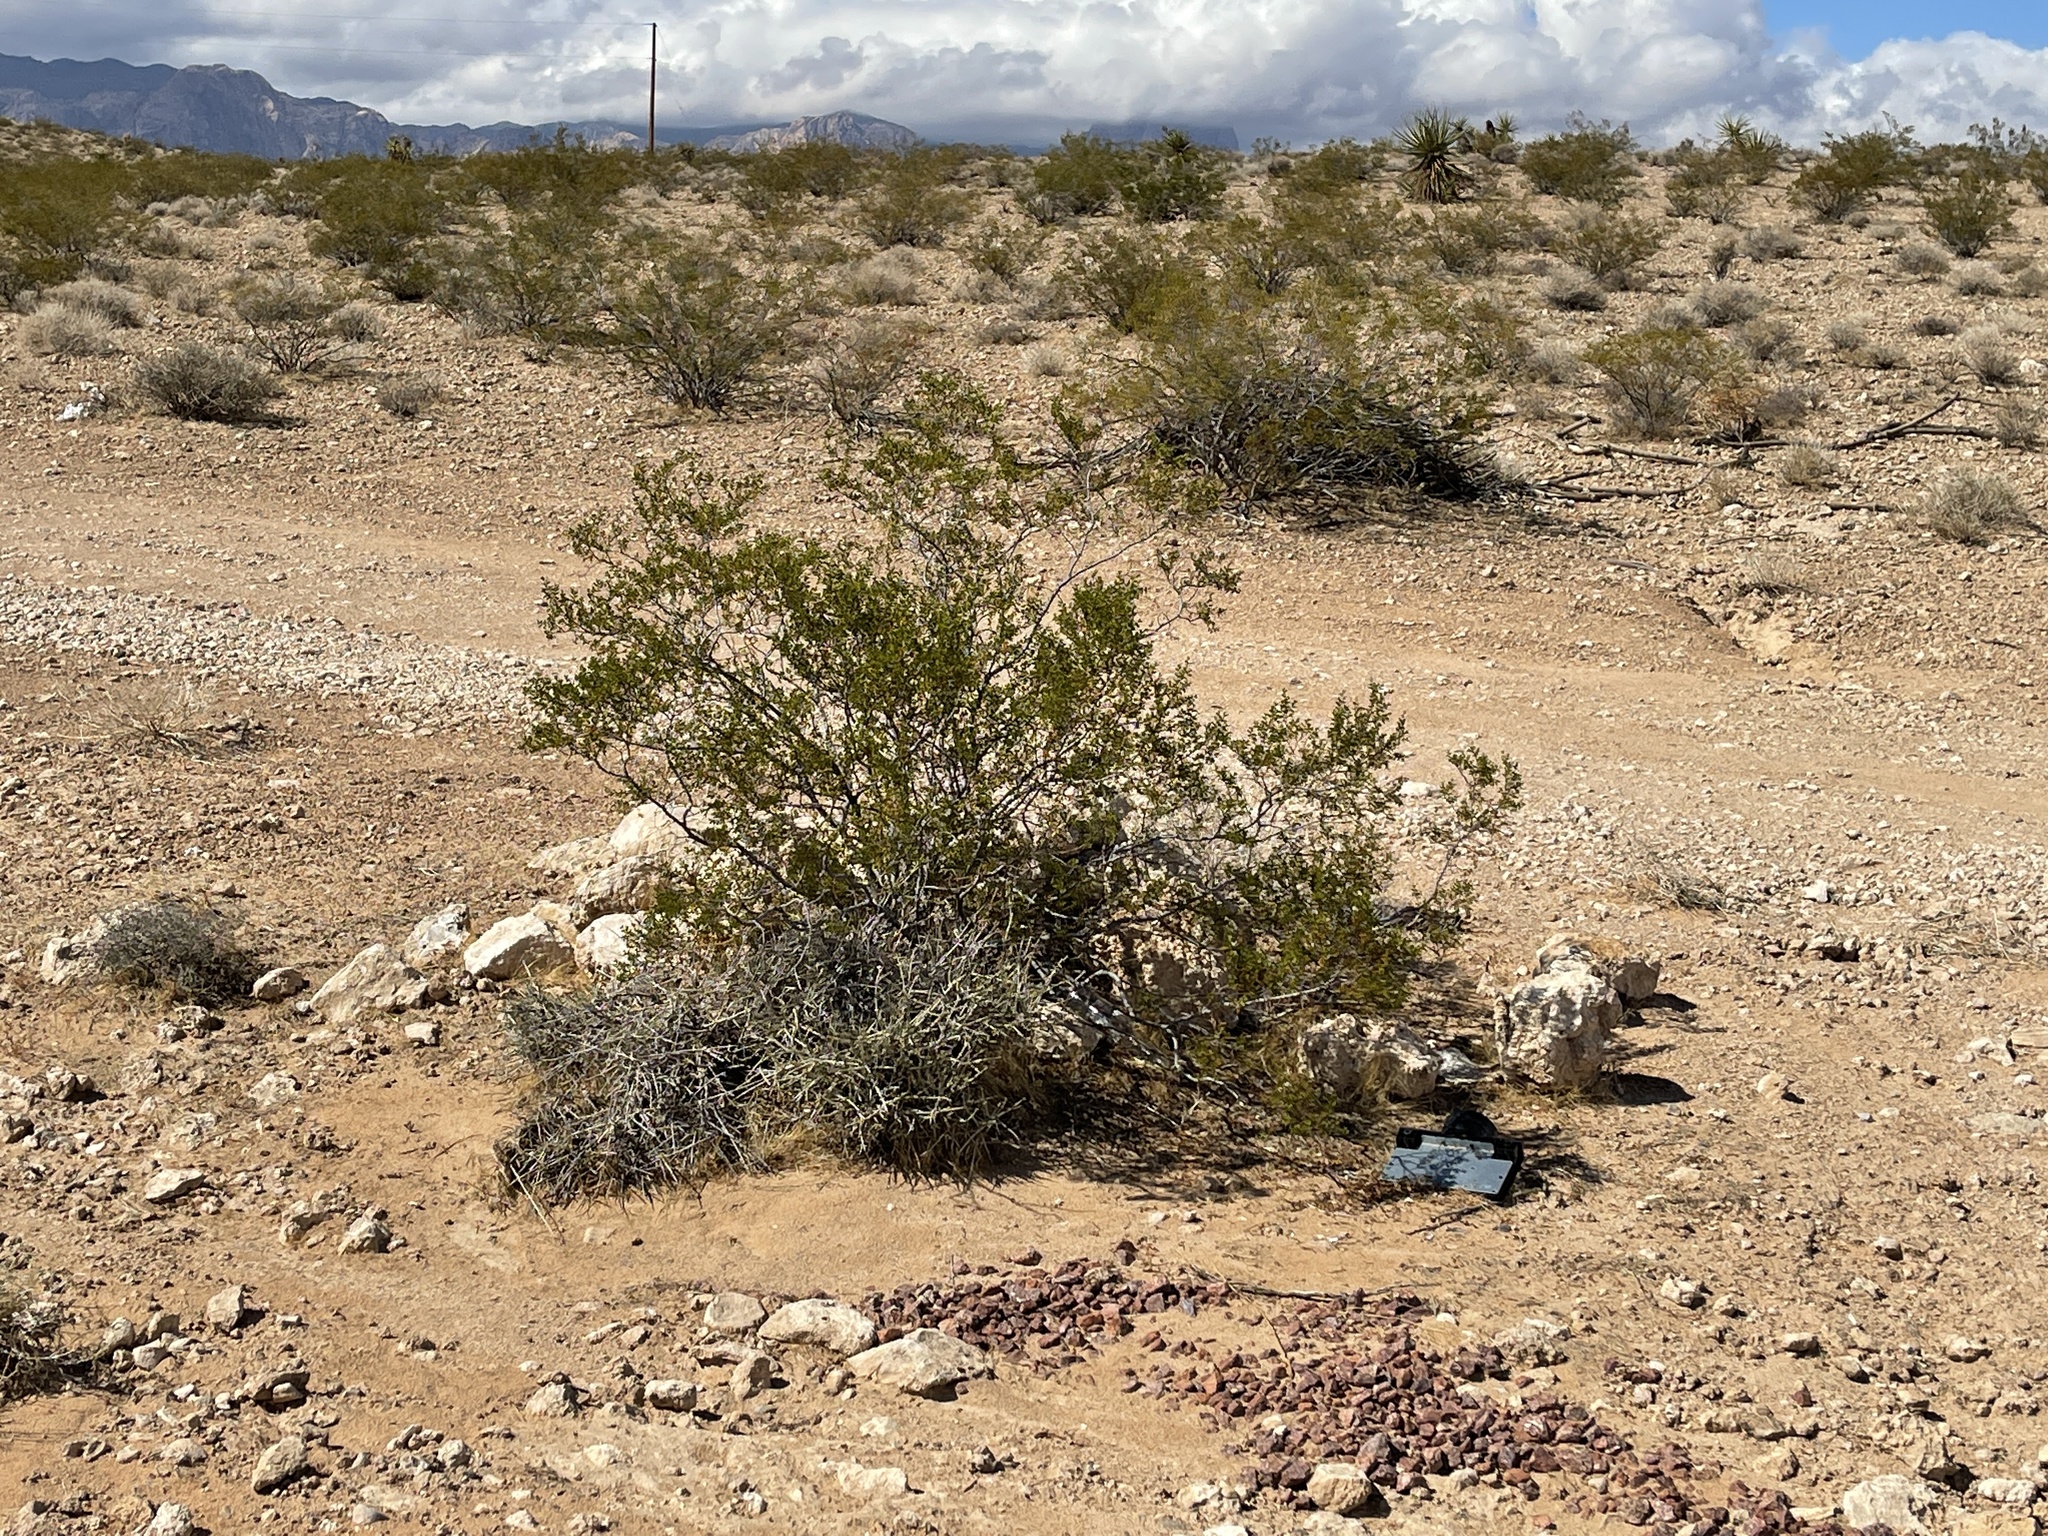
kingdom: Plantae
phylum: Tracheophyta
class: Magnoliopsida
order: Zygophyllales
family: Zygophyllaceae
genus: Larrea
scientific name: Larrea tridentata
